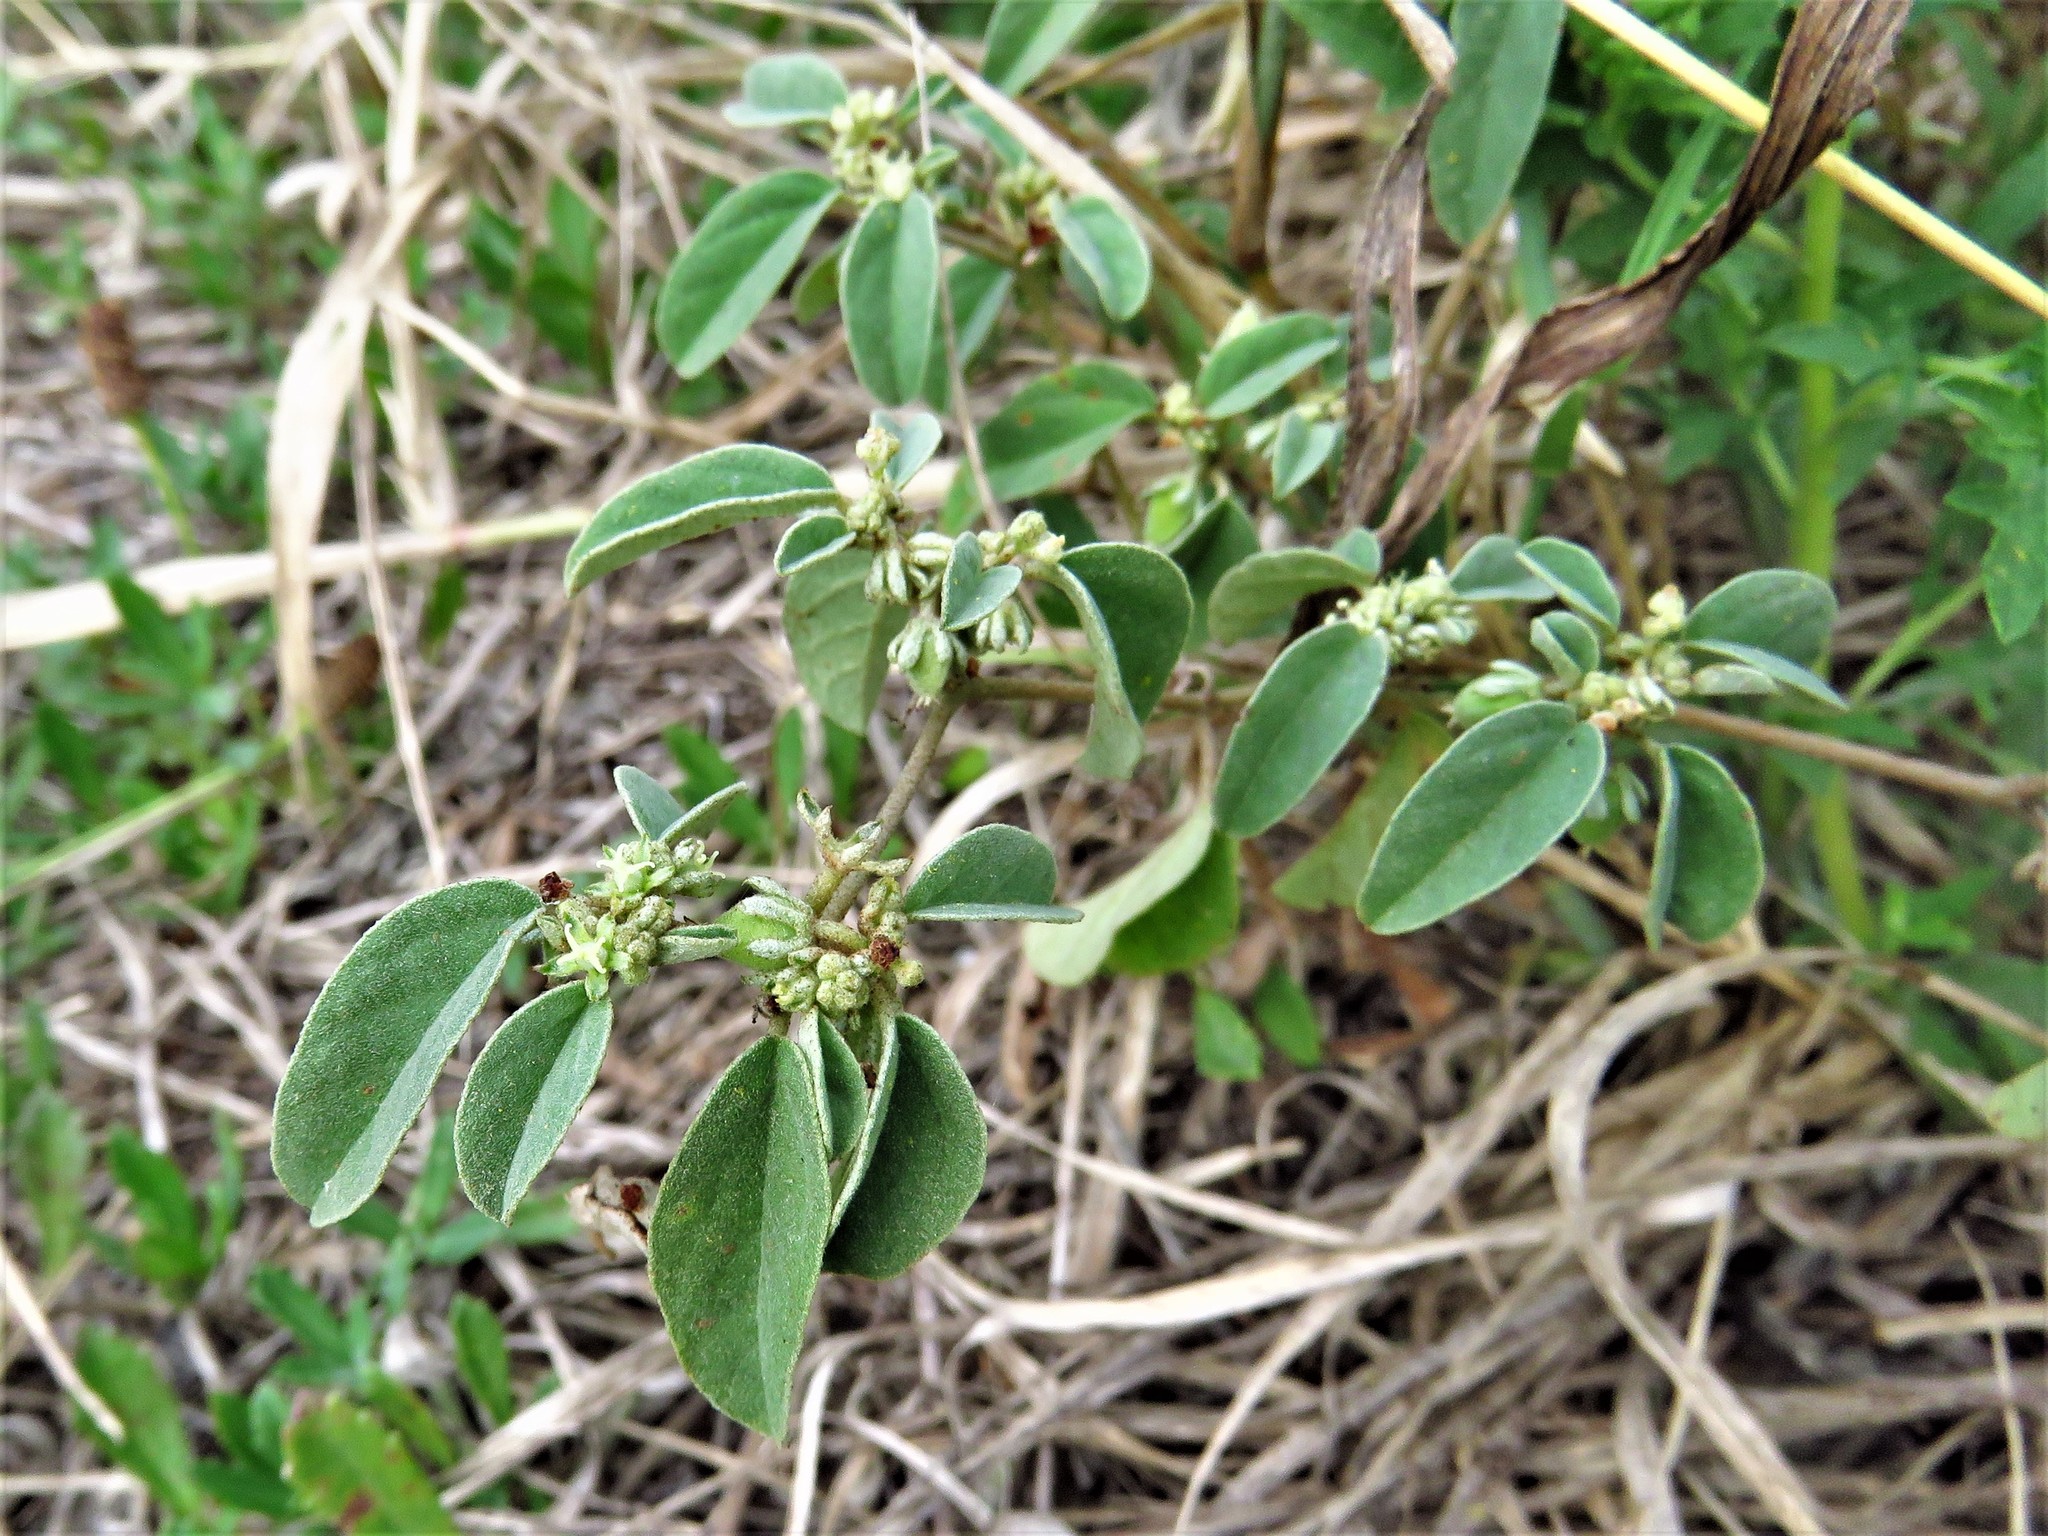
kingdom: Plantae
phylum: Tracheophyta
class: Magnoliopsida
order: Malpighiales
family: Euphorbiaceae
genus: Croton
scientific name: Croton monanthogynus
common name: One-seed croton
